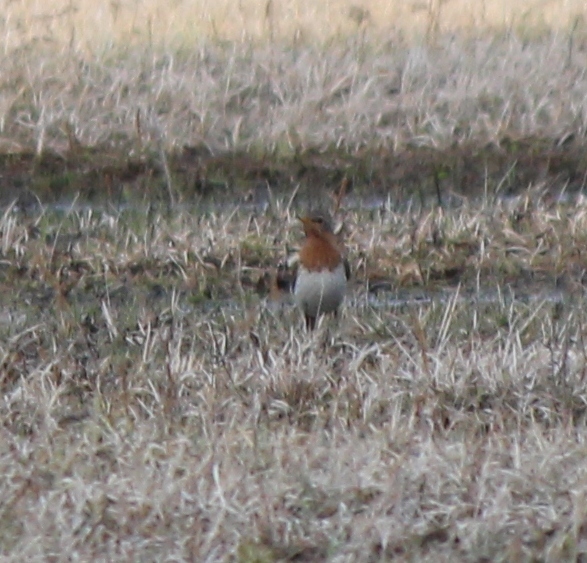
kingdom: Animalia
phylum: Chordata
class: Aves
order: Passeriformes
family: Turdidae
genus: Turdus
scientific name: Turdus ruficollis
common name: Red-throated thrush
